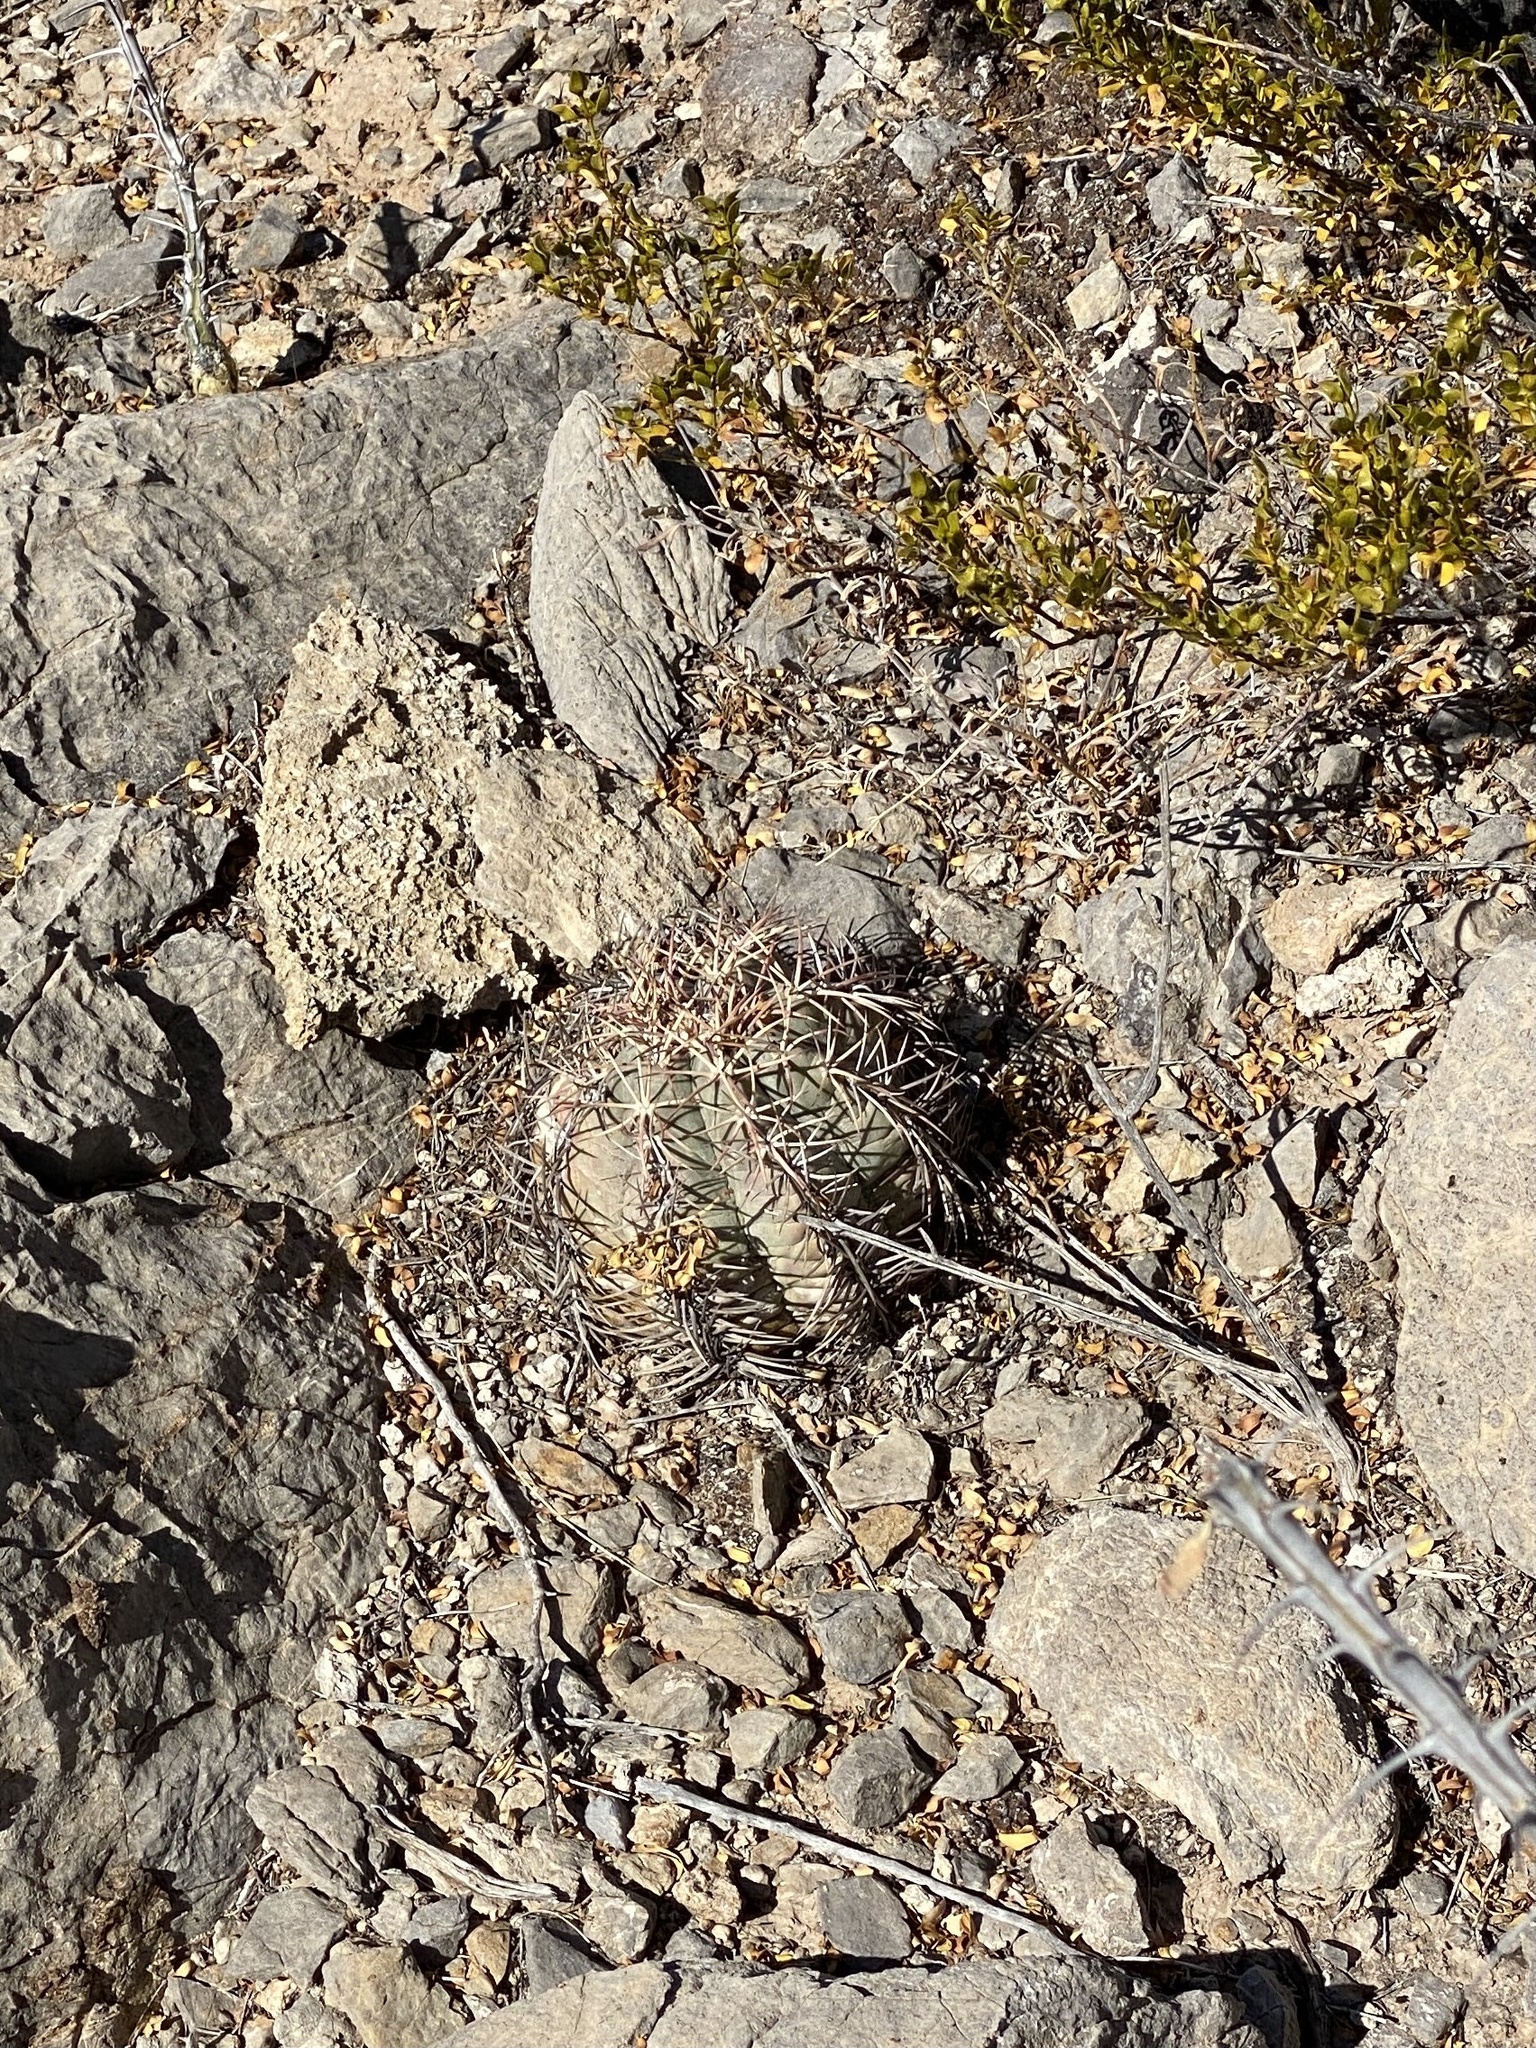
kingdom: Plantae
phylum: Tracheophyta
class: Magnoliopsida
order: Caryophyllales
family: Cactaceae
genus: Echinocactus
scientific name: Echinocactus horizonthalonius
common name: Devilshead
